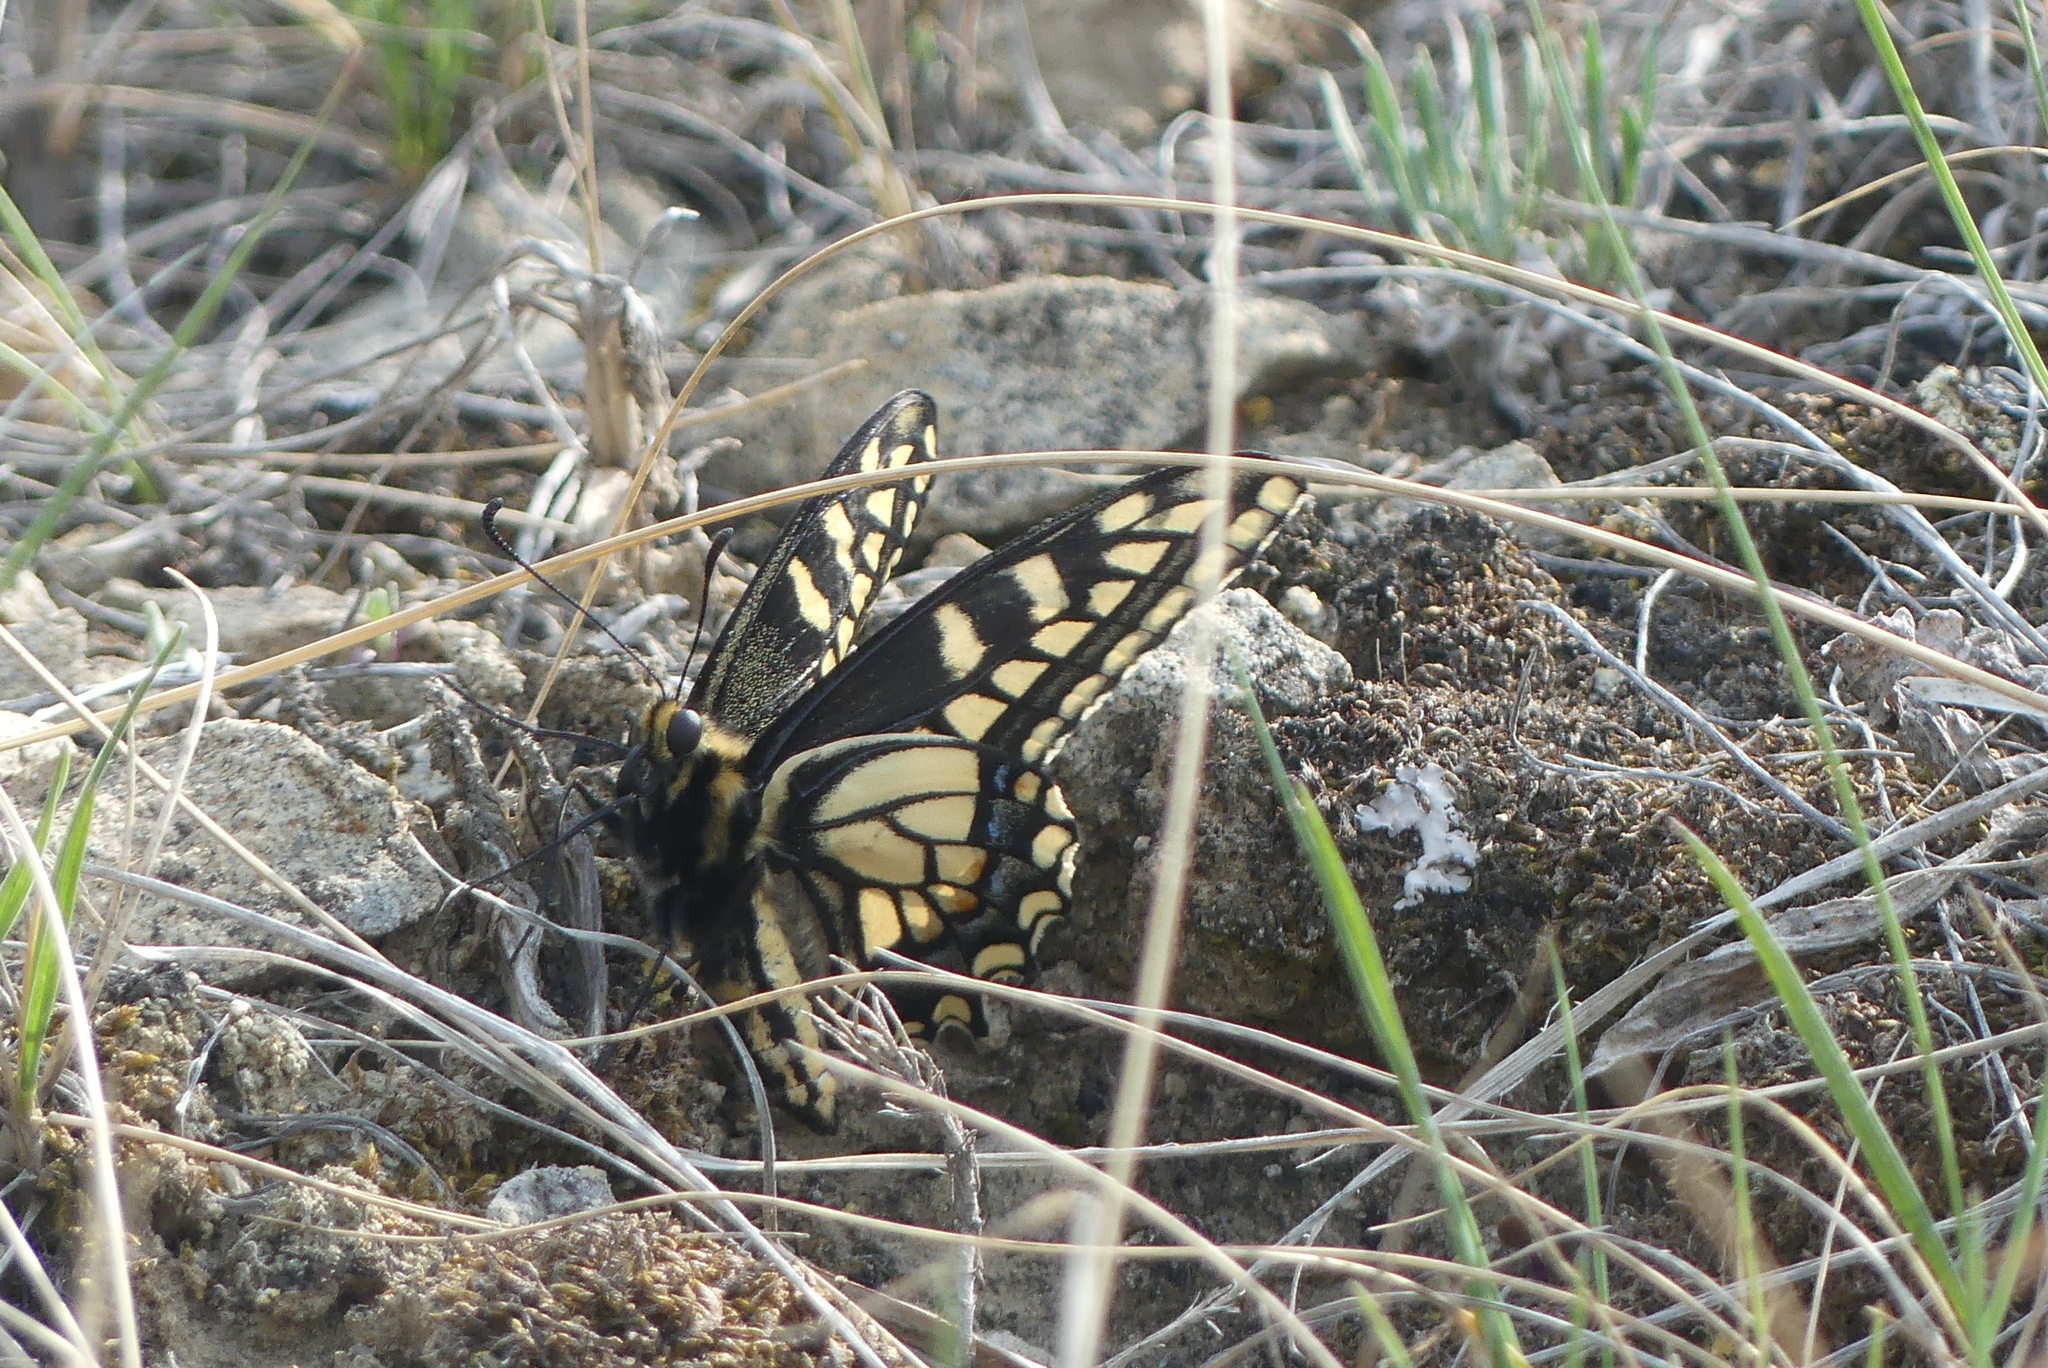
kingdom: Animalia
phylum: Arthropoda
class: Insecta
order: Lepidoptera
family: Papilionidae
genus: Papilio
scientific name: Papilio
